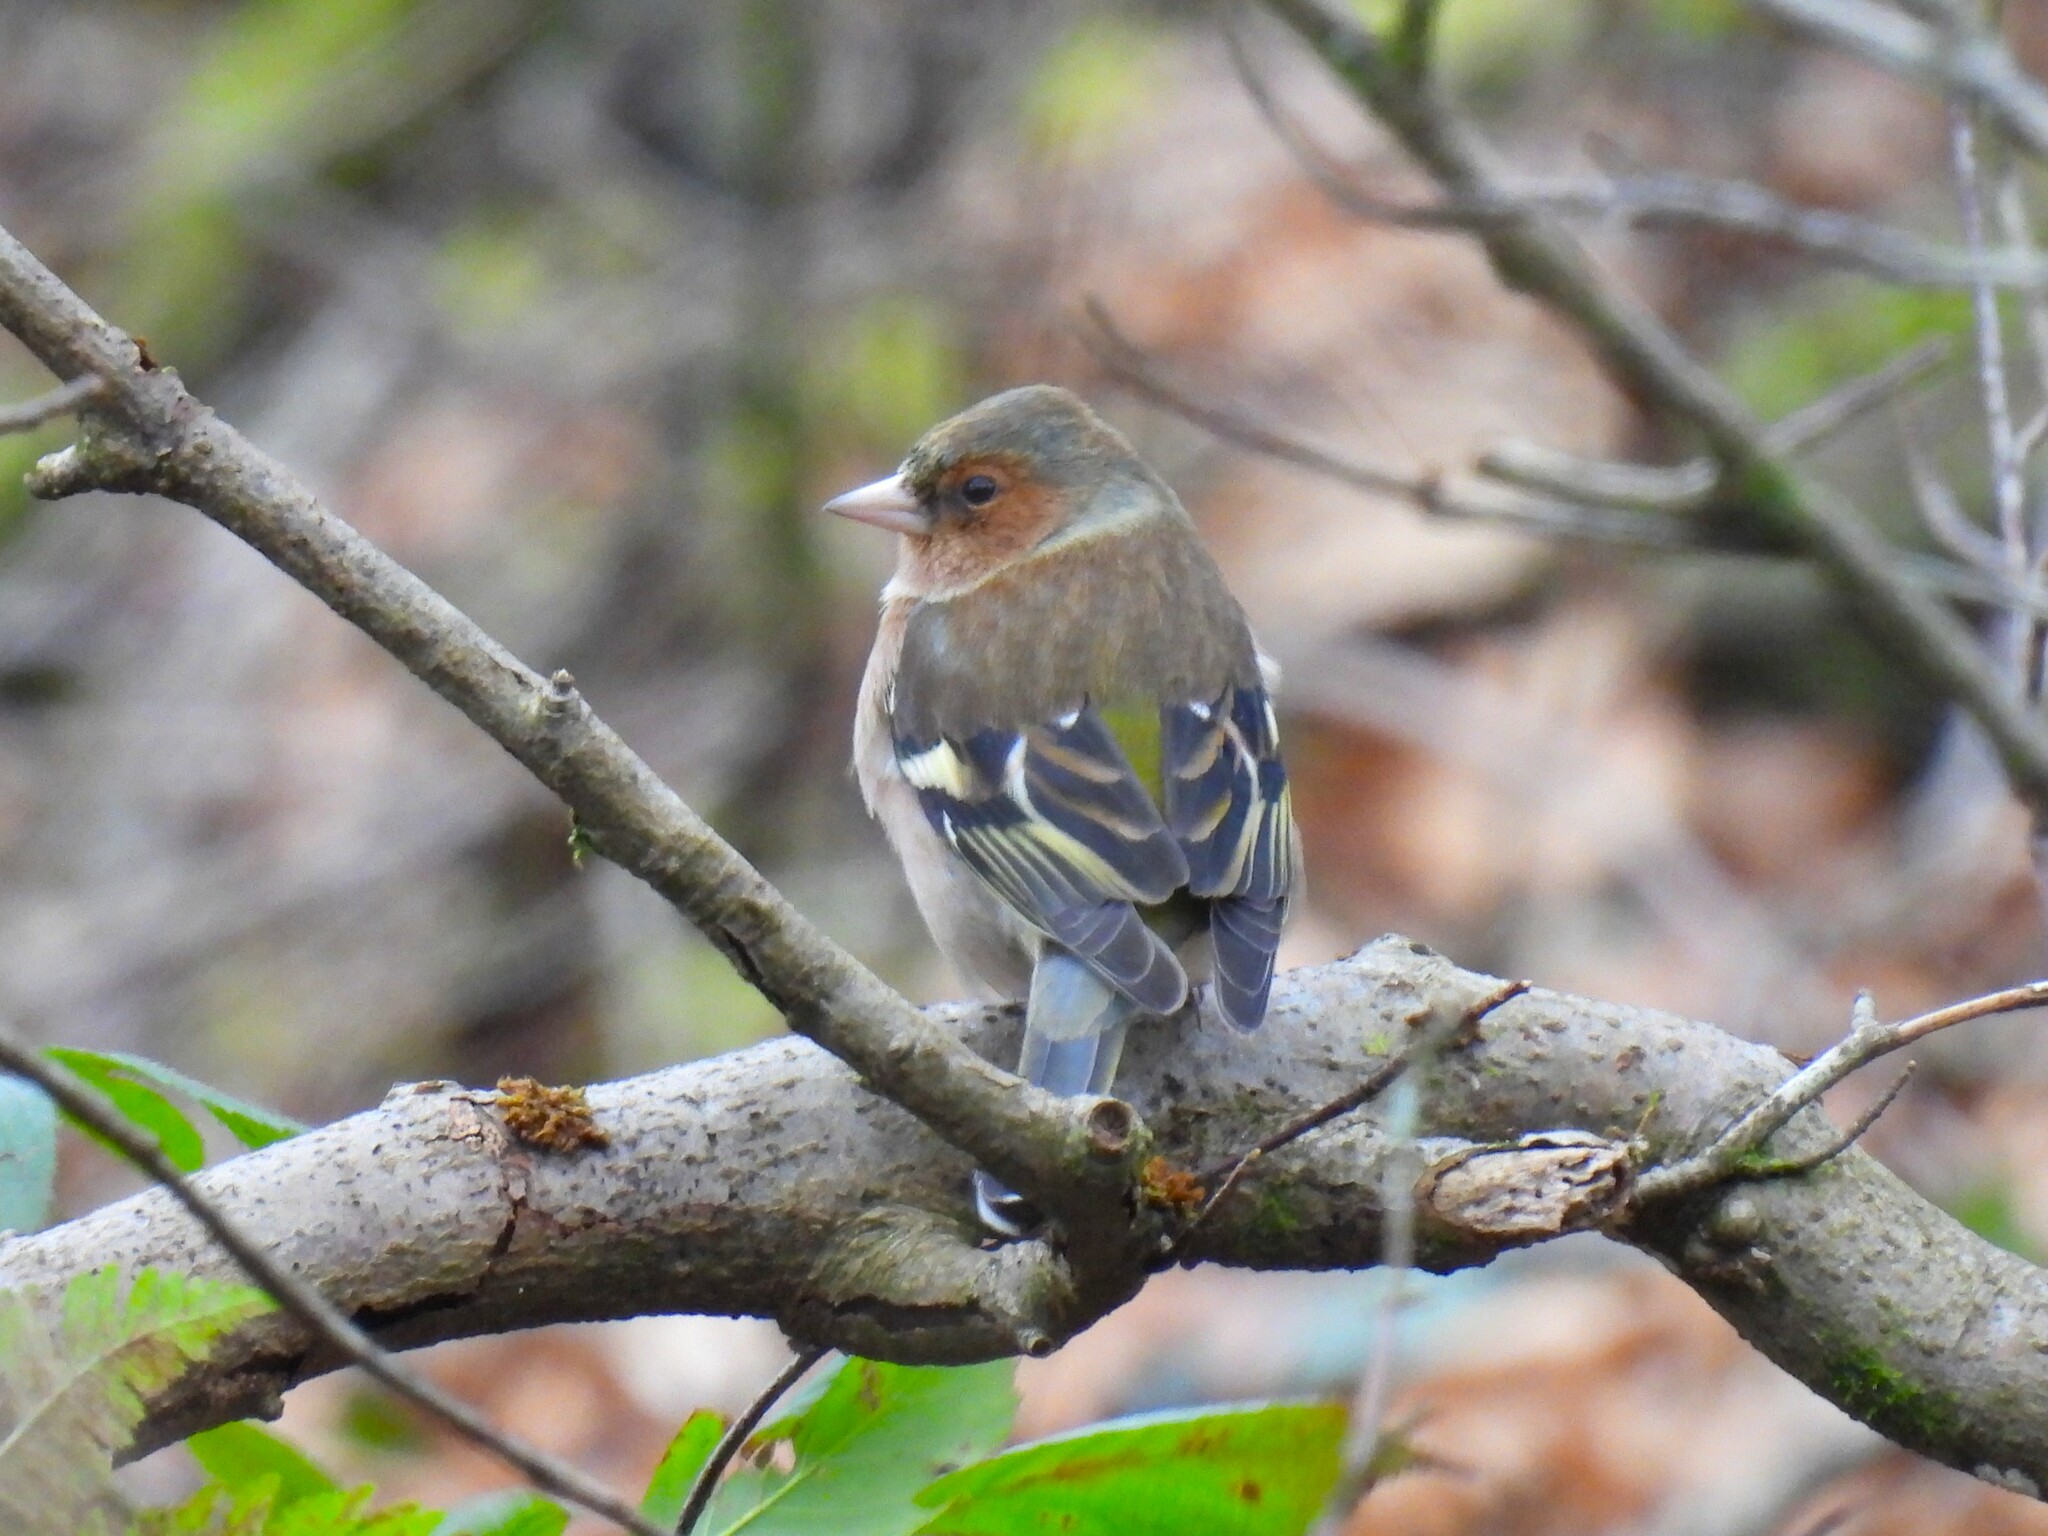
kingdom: Animalia
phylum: Chordata
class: Aves
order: Passeriformes
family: Fringillidae
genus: Fringilla
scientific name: Fringilla coelebs
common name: Common chaffinch
